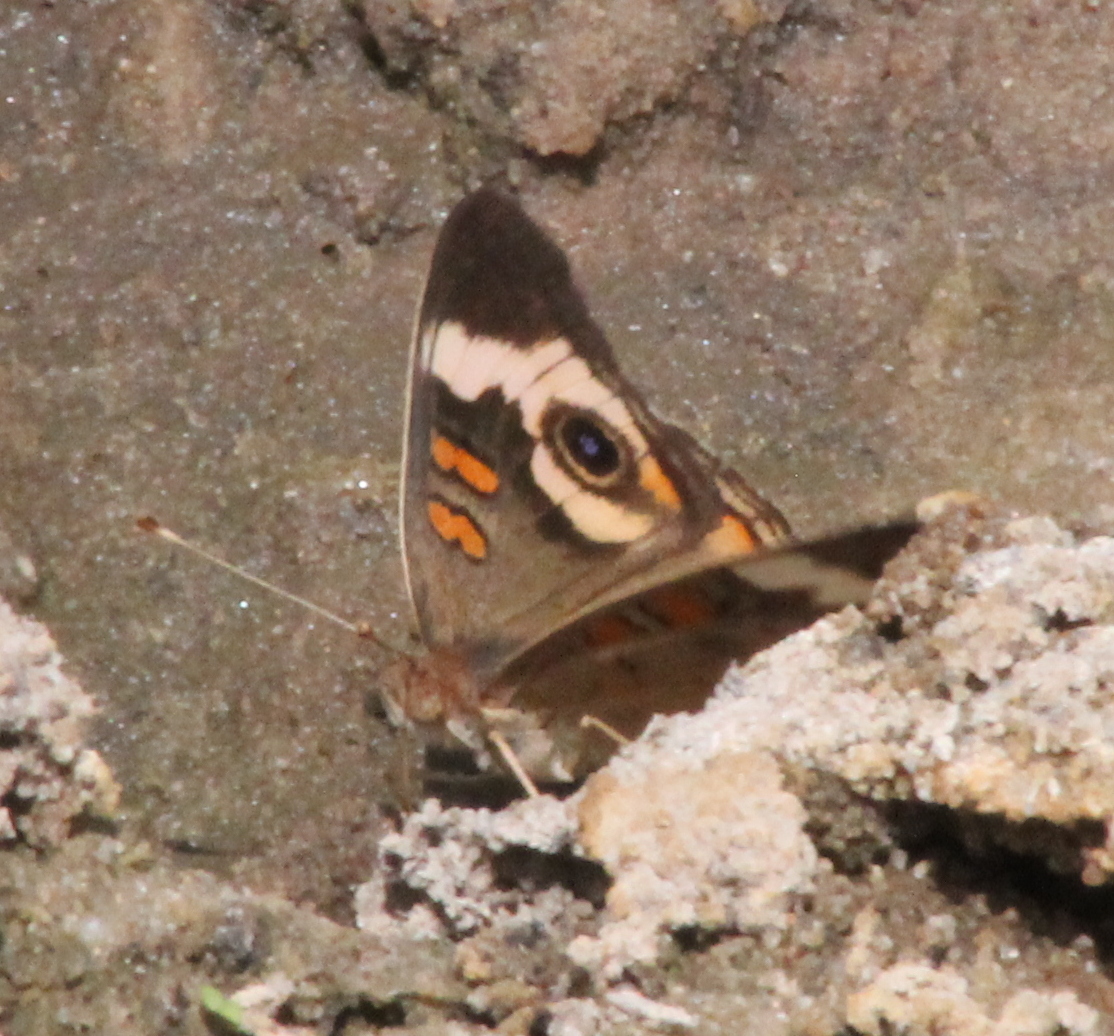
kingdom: Animalia
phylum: Arthropoda
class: Insecta
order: Lepidoptera
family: Nymphalidae
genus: Junonia
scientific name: Junonia coenia
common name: Common buckeye
